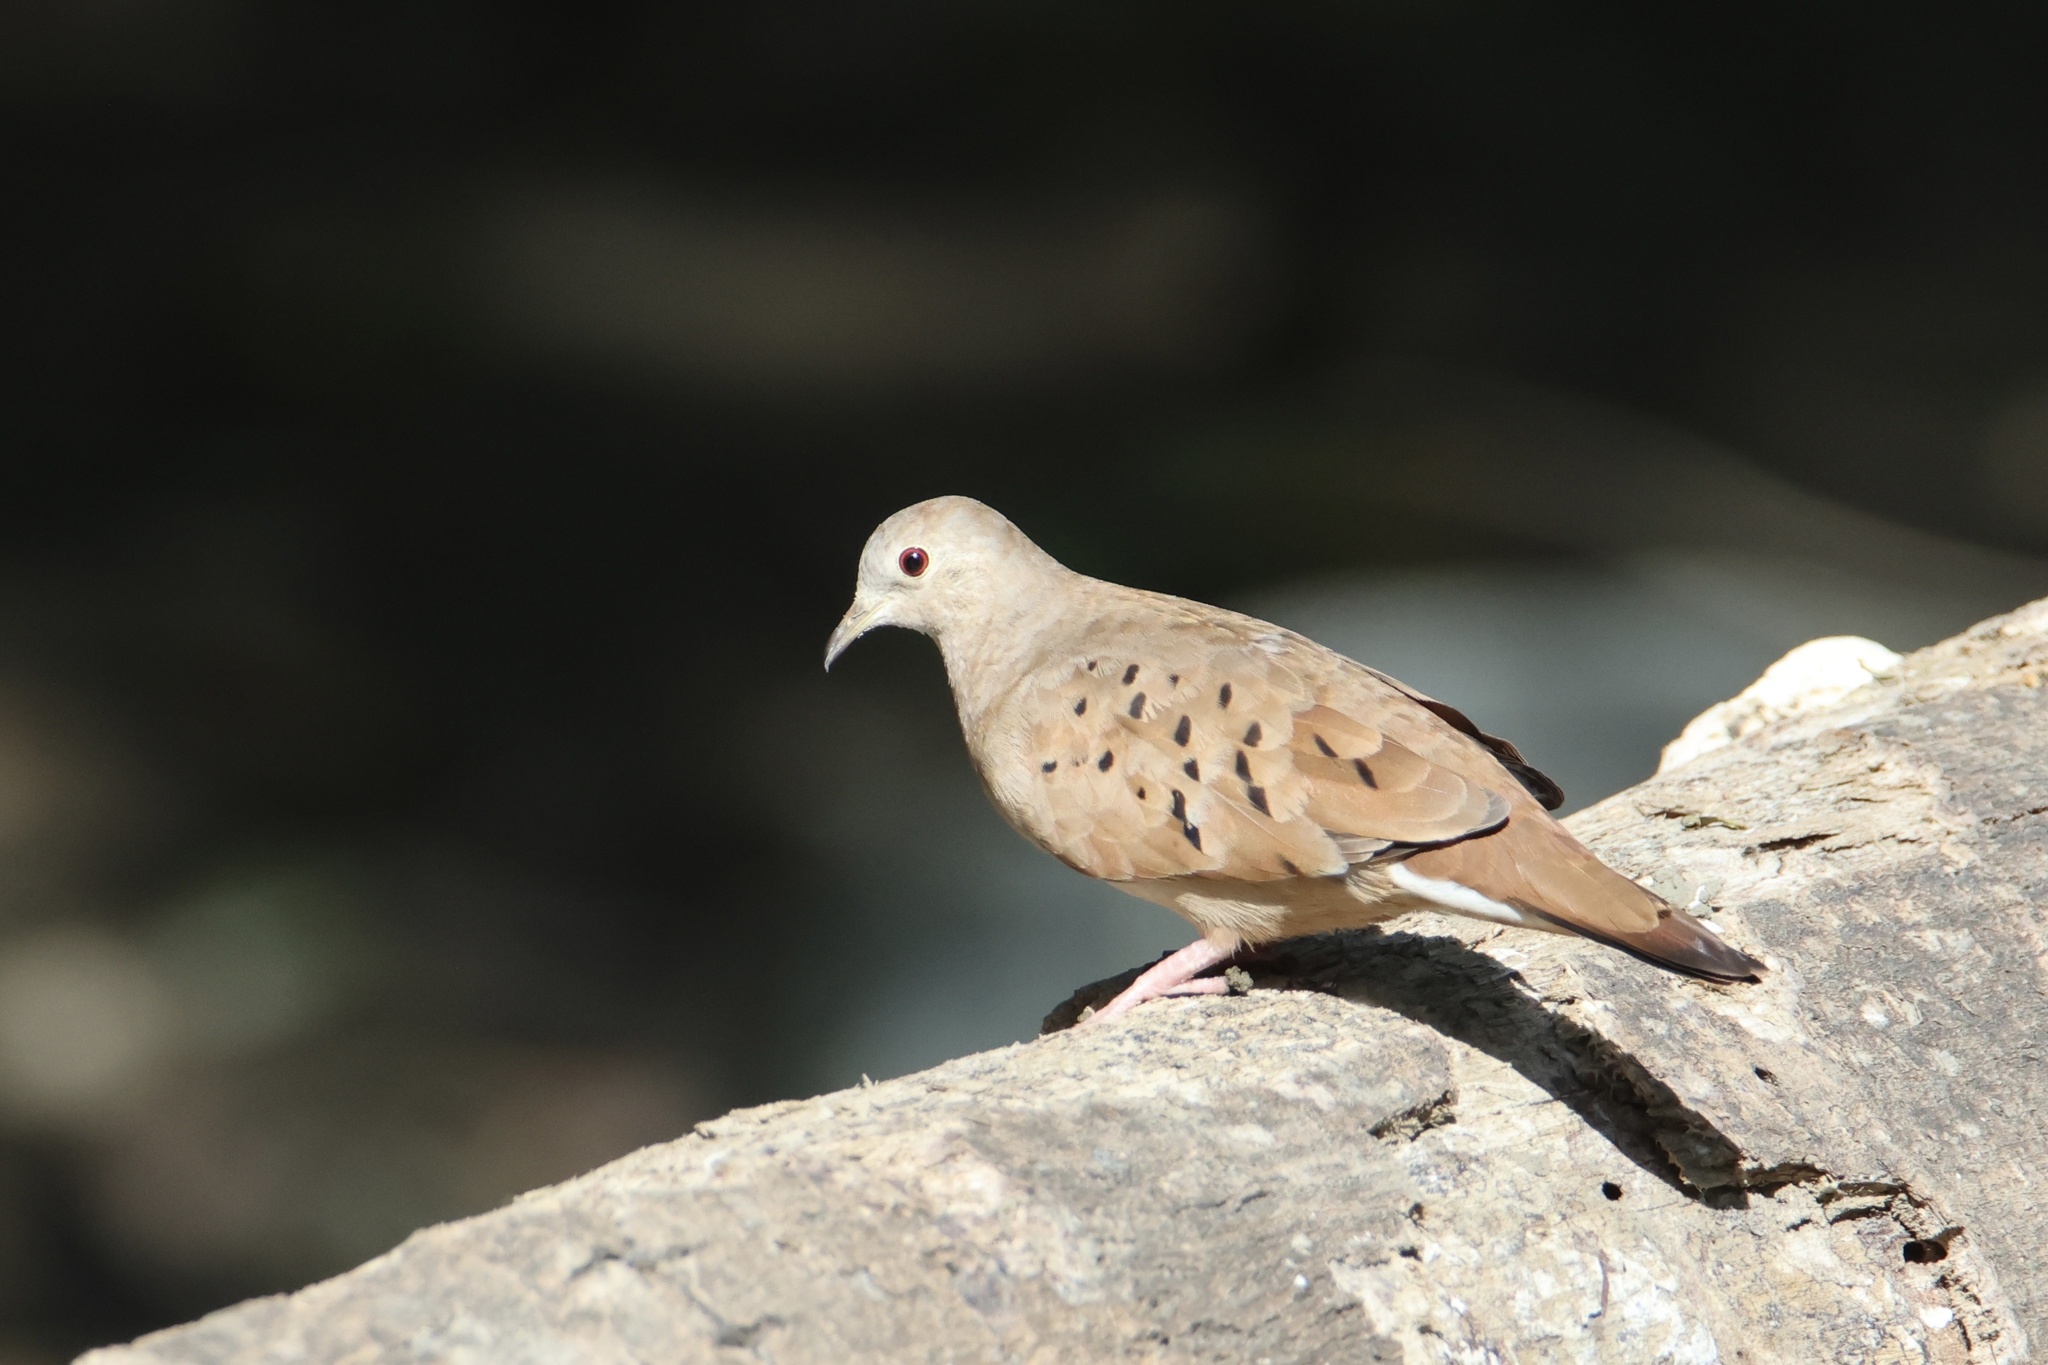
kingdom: Animalia
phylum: Chordata
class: Aves
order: Columbiformes
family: Columbidae
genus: Columbina
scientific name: Columbina talpacoti
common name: Ruddy ground dove
